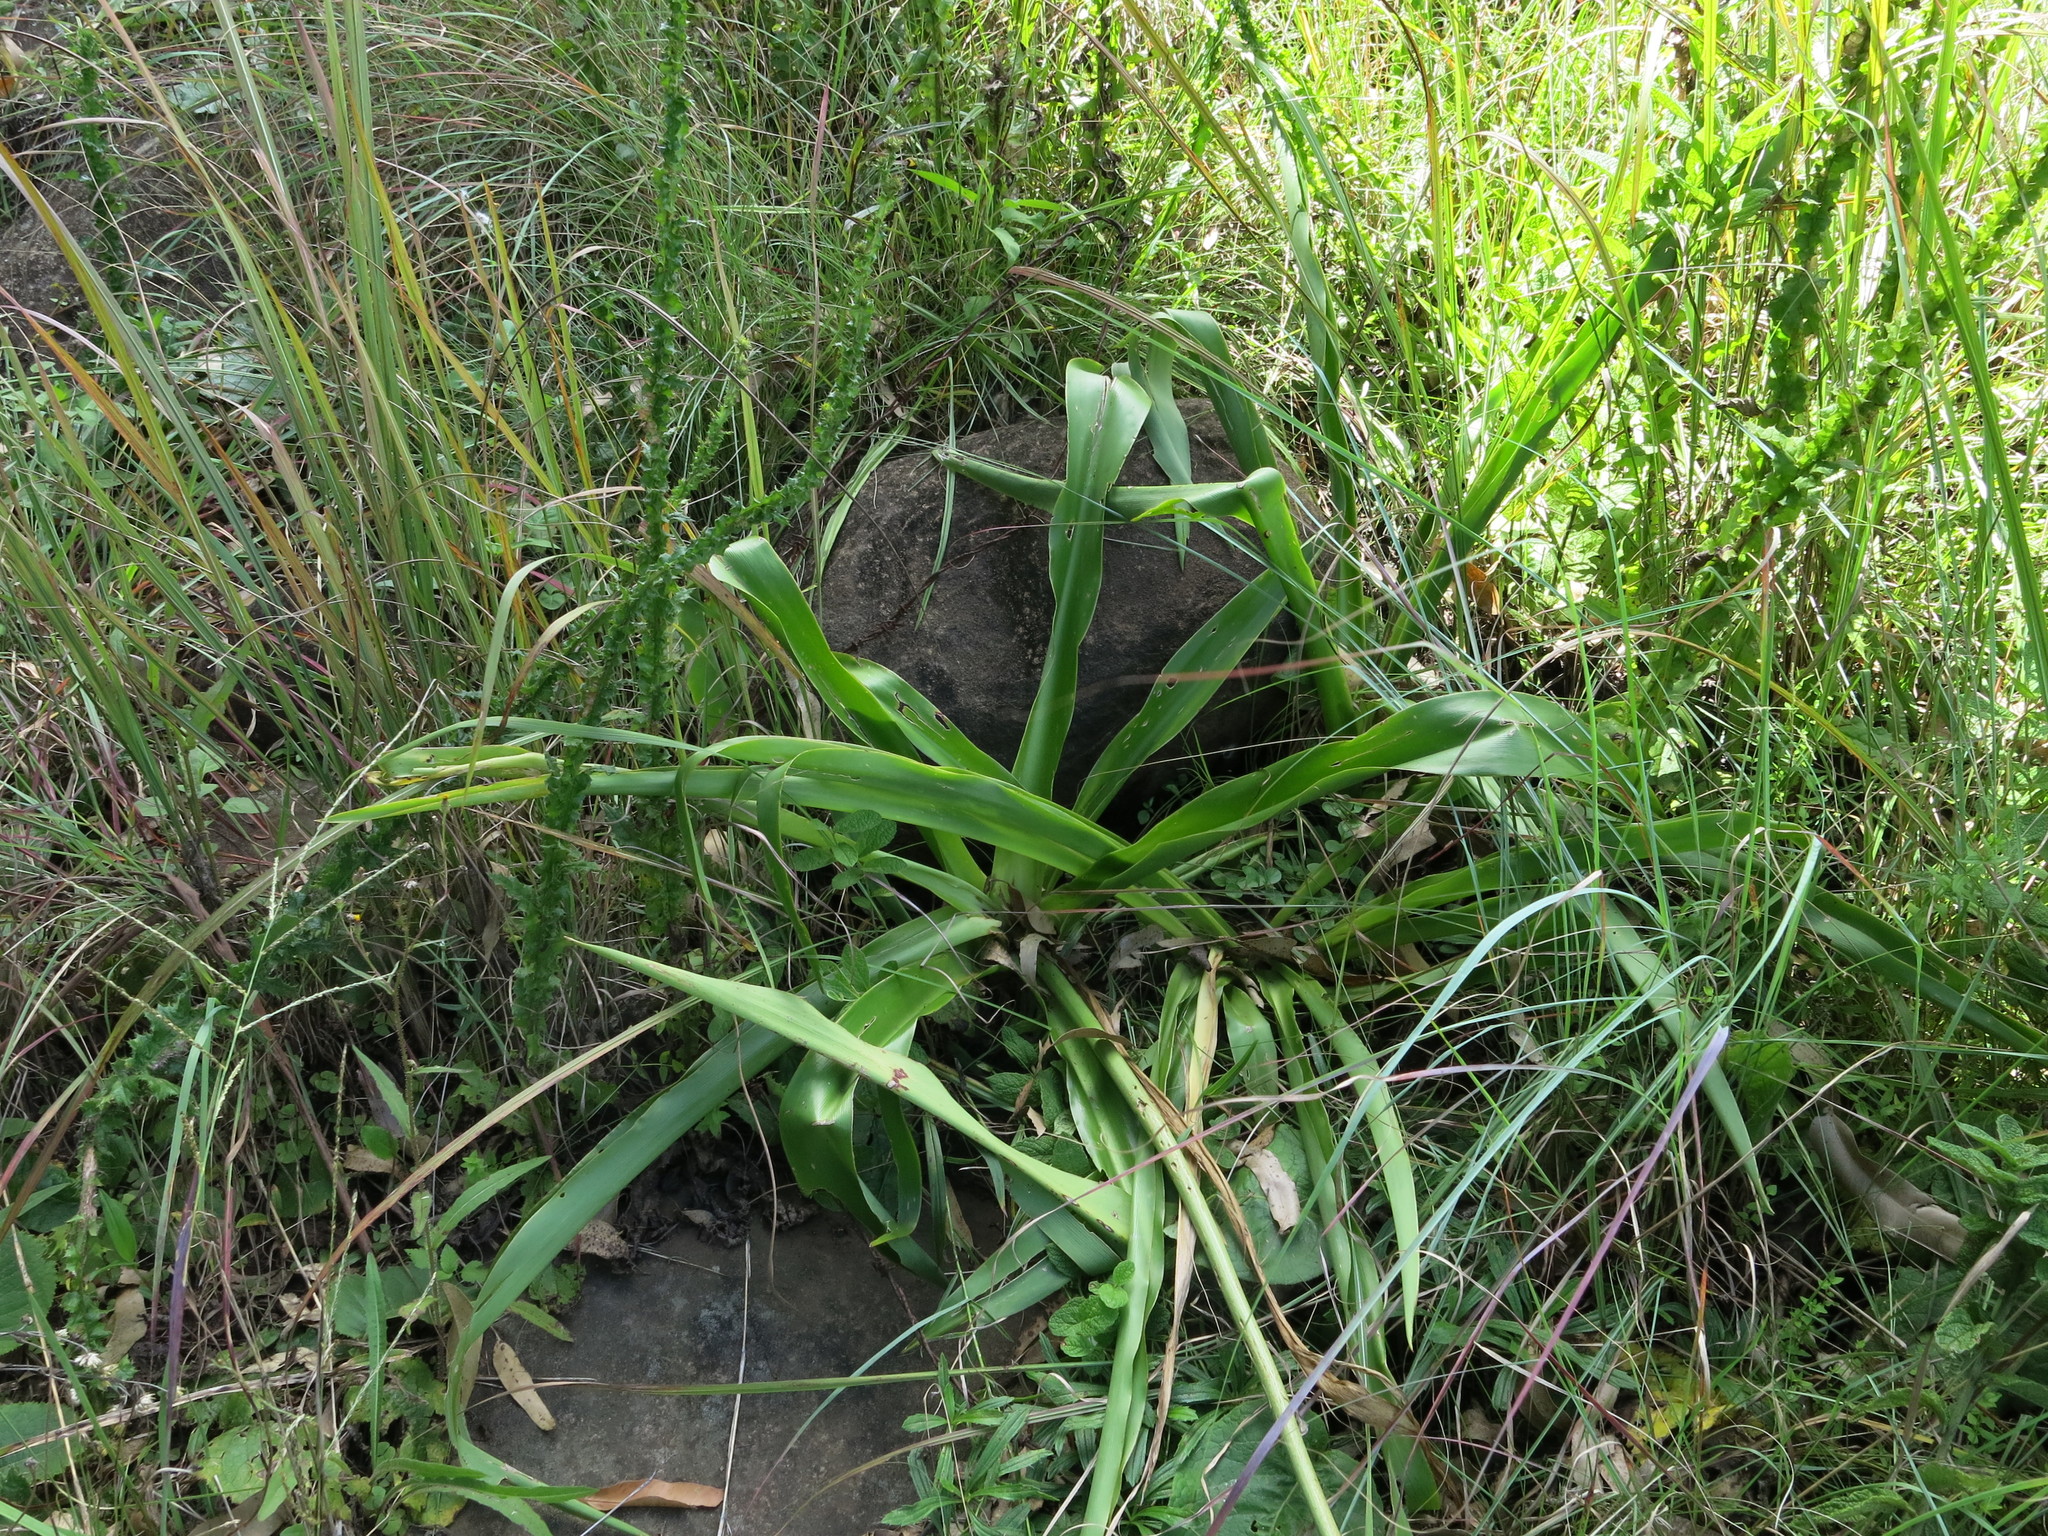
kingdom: Plantae
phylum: Tracheophyta
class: Liliopsida
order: Asparagales
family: Asparagaceae
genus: Chlorophytum
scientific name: Chlorophytum krookianum
